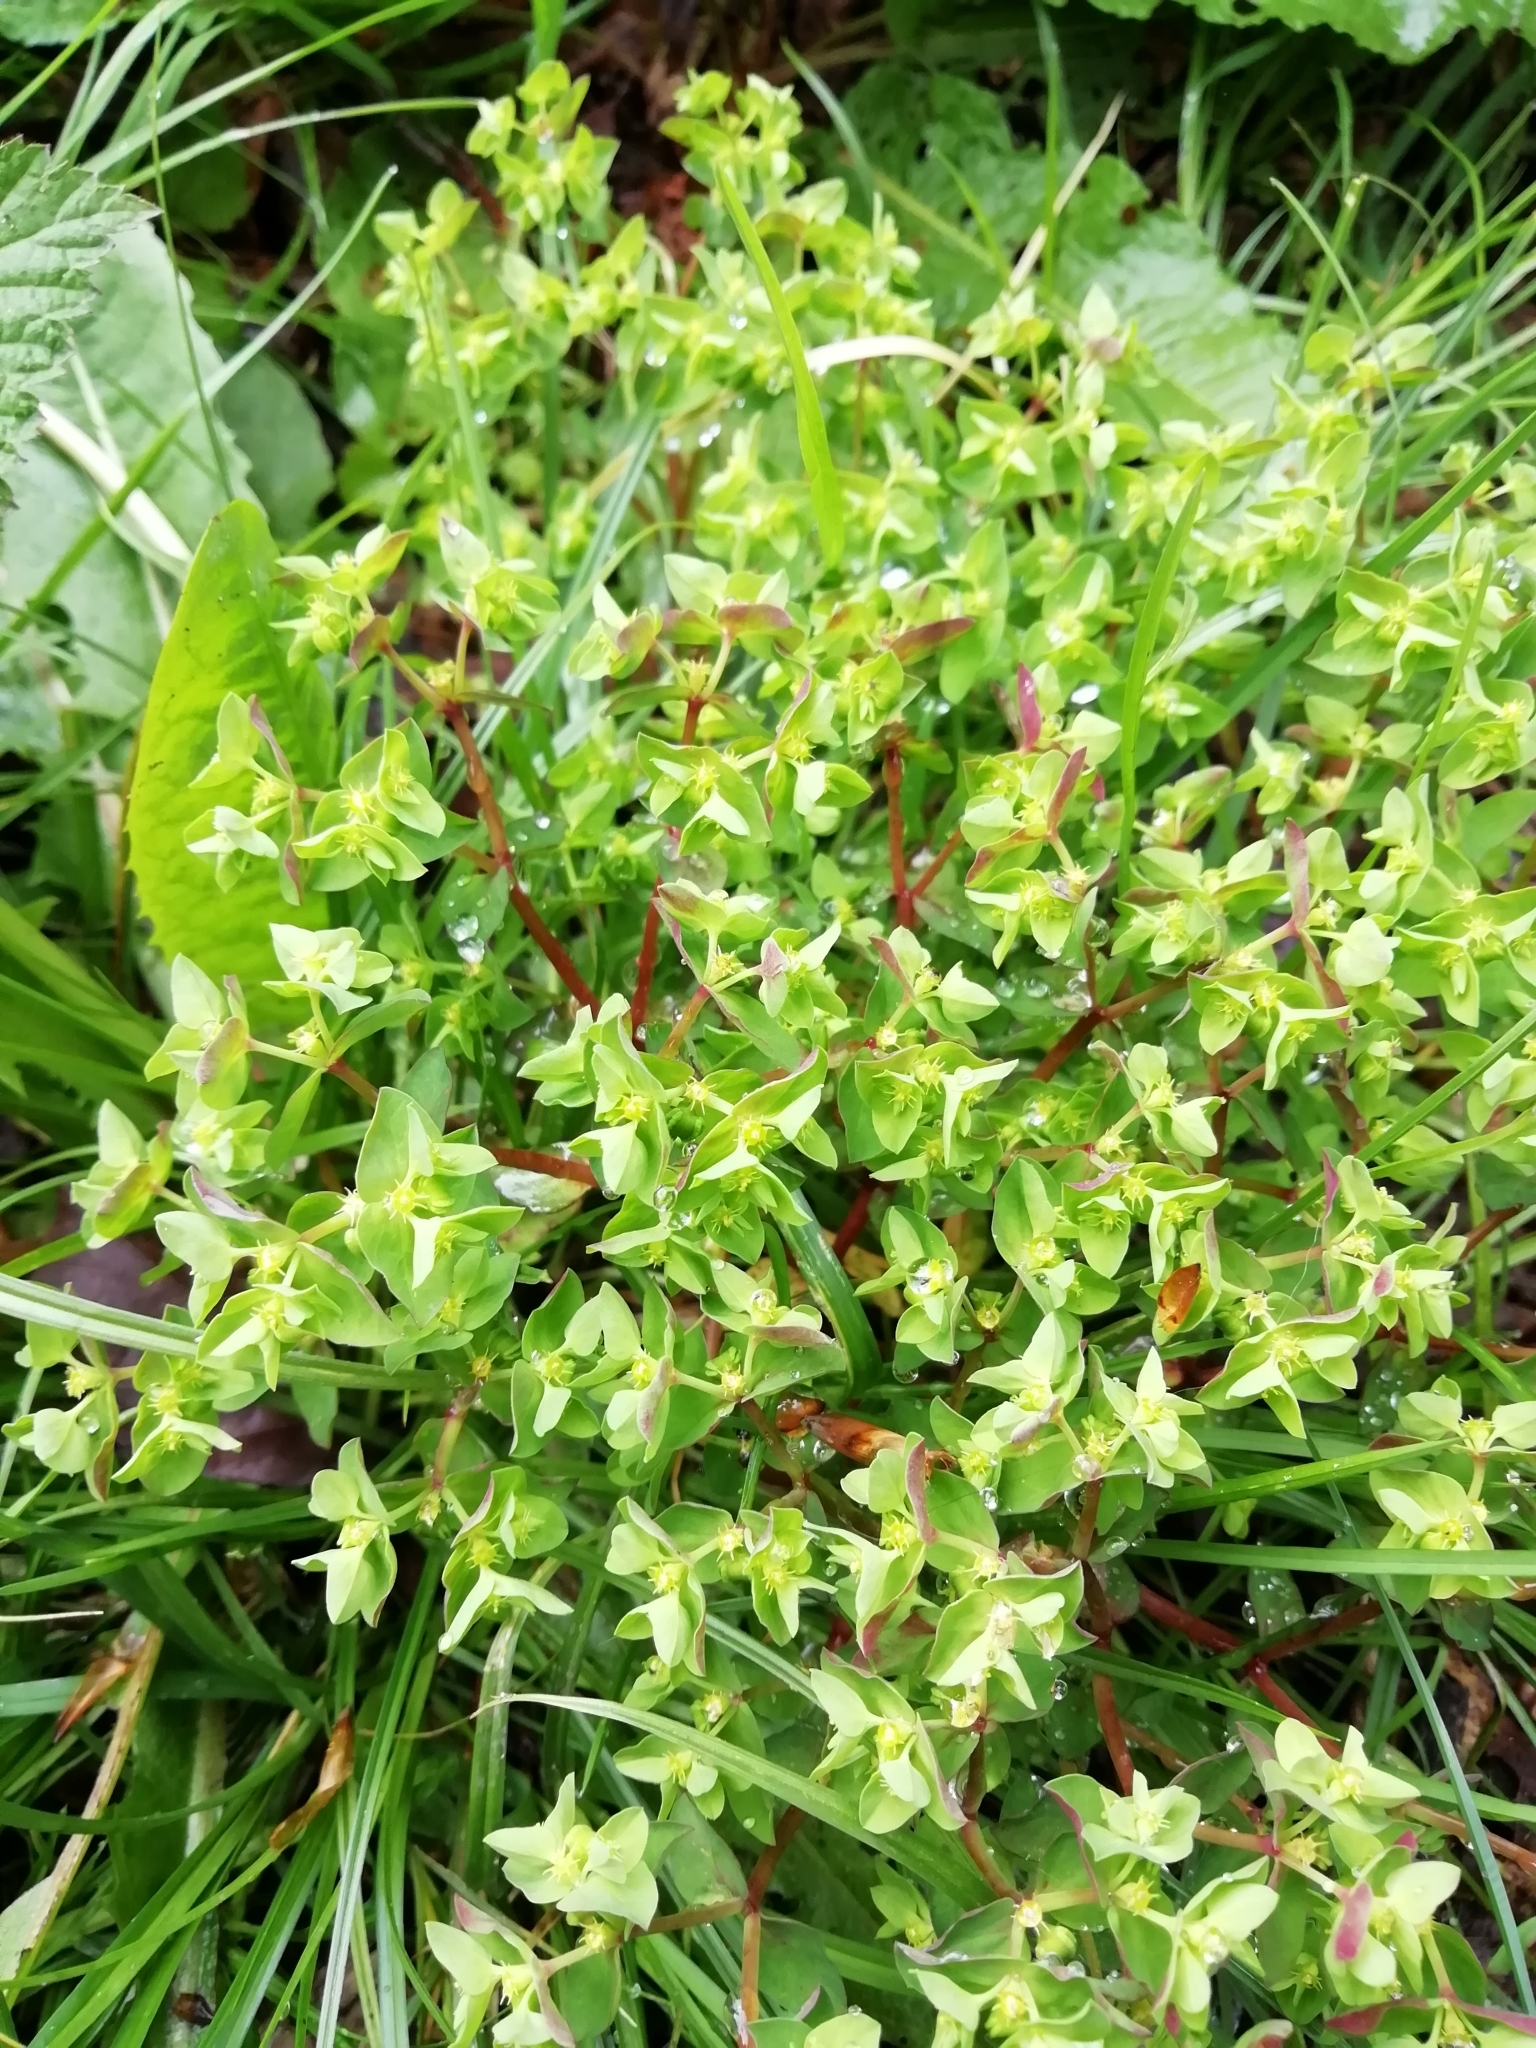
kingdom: Plantae
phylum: Tracheophyta
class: Magnoliopsida
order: Malpighiales
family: Euphorbiaceae
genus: Euphorbia
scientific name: Euphorbia peplus
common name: Petty spurge
